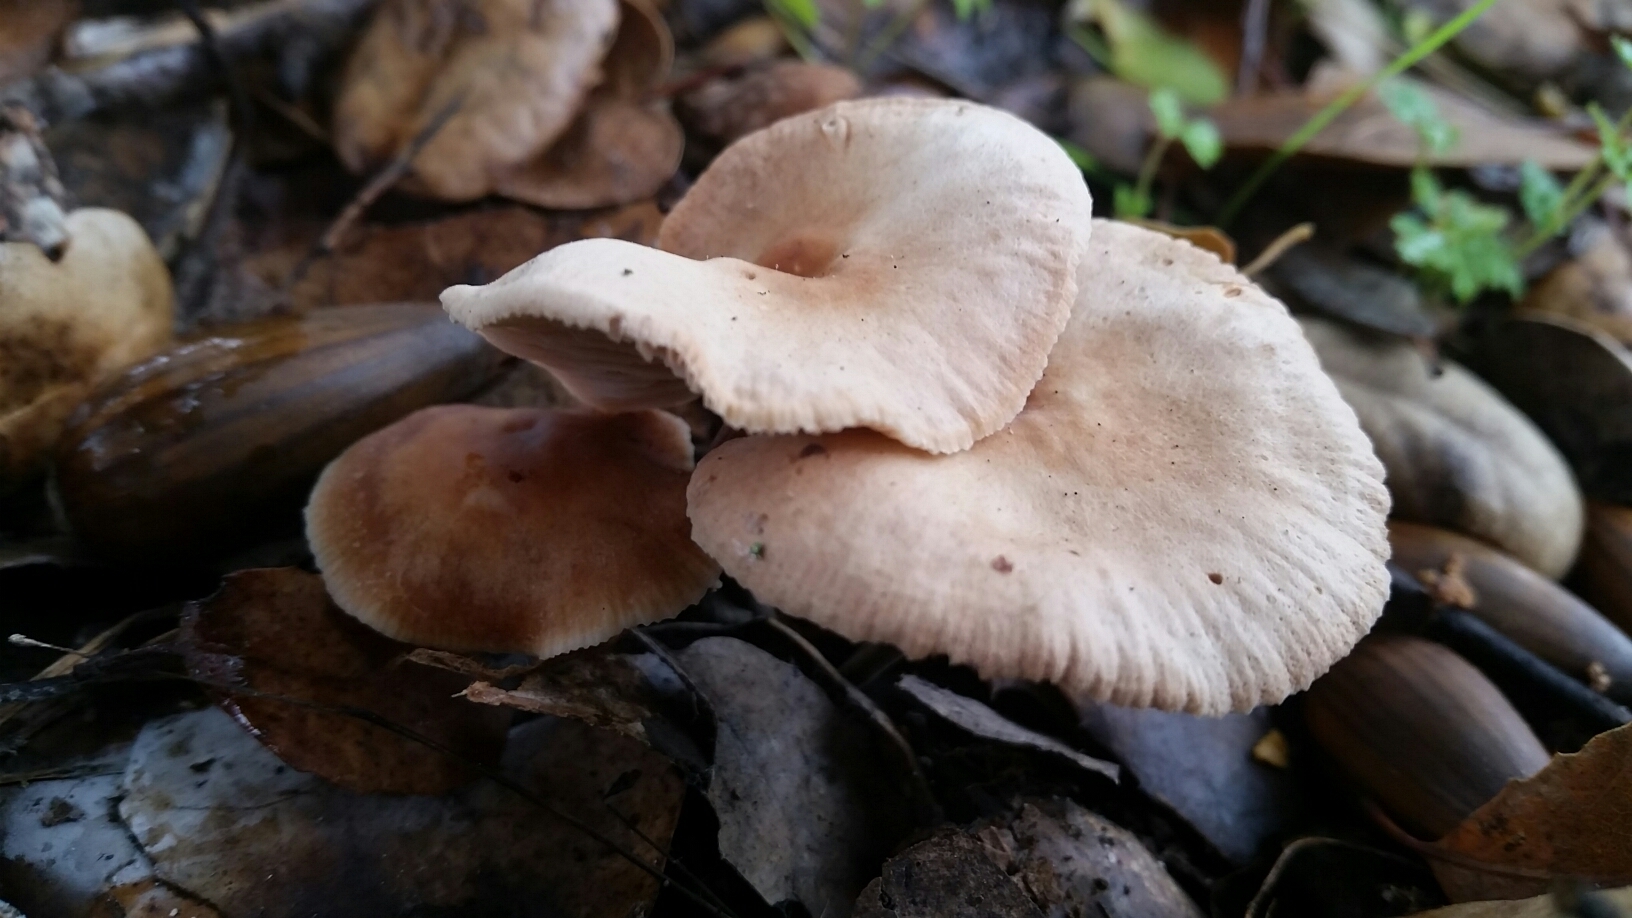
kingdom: Fungi
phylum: Basidiomycota
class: Agaricomycetes
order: Agaricales
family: Omphalotaceae
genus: Gymnopus
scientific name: Gymnopus brassicolens
